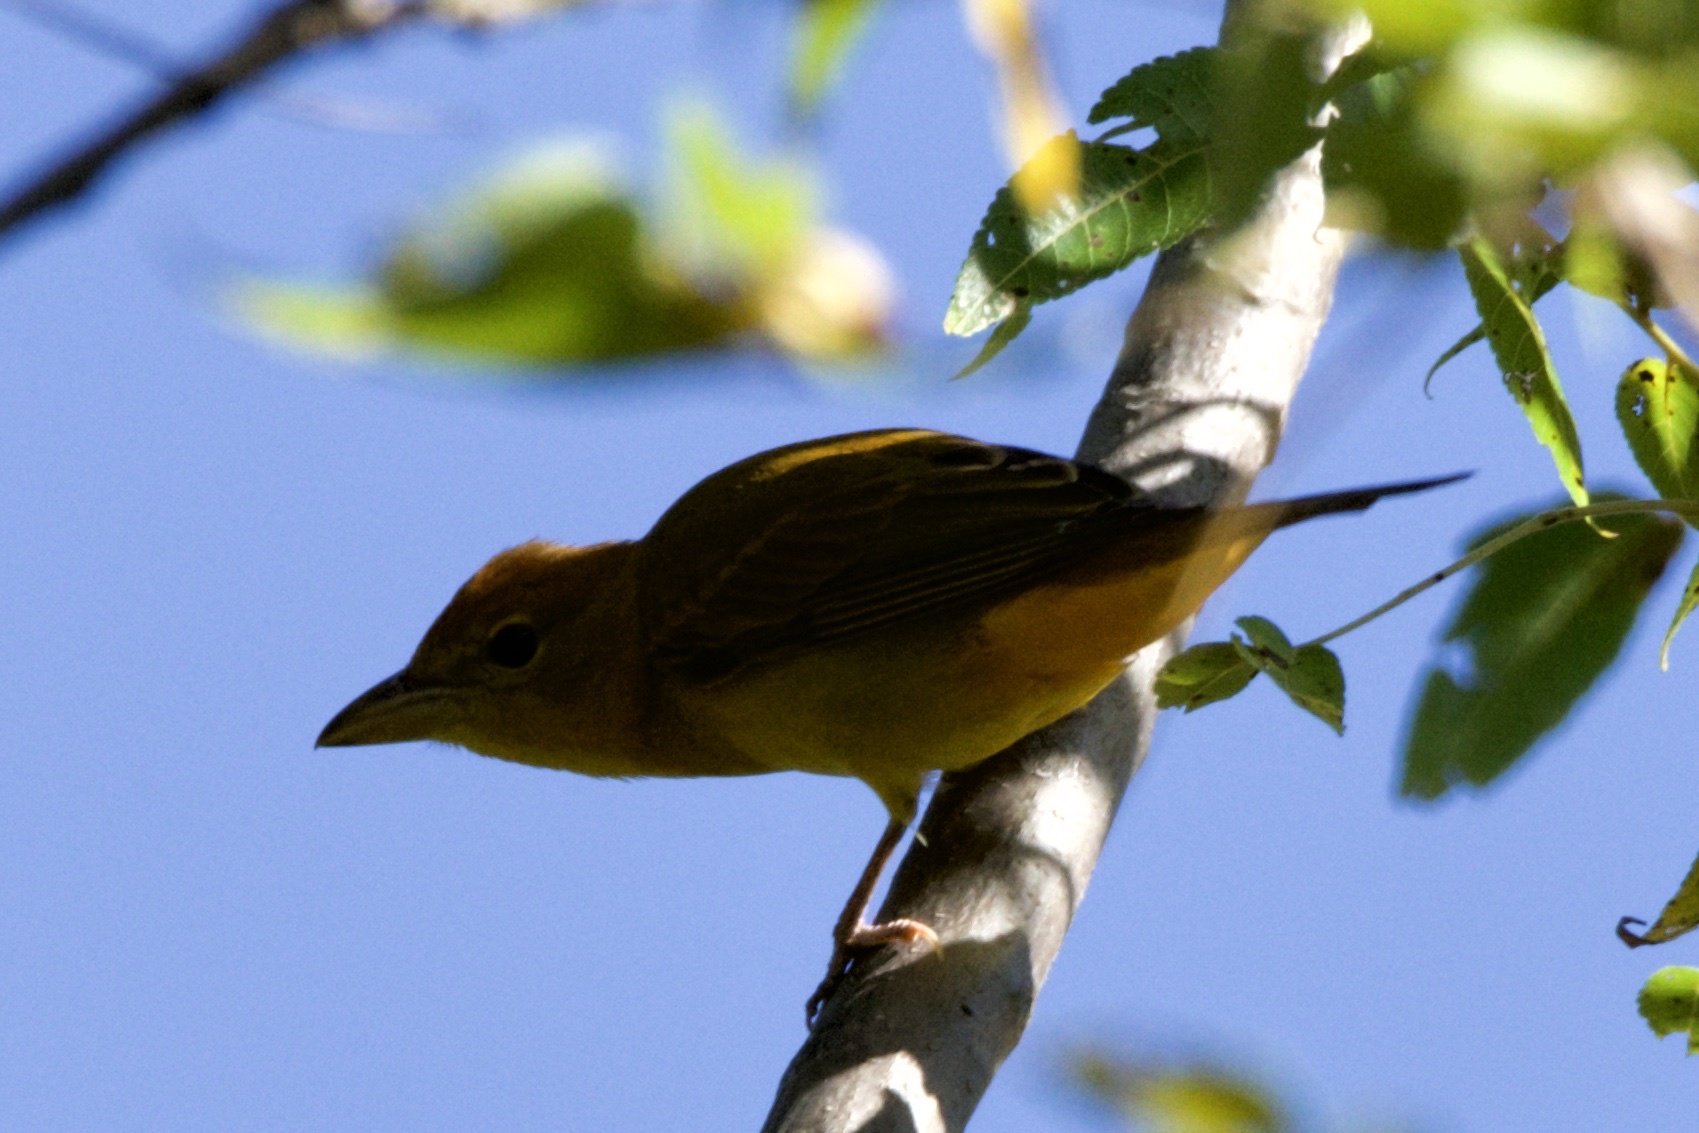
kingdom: Animalia
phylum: Chordata
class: Aves
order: Passeriformes
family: Cardinalidae
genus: Piranga
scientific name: Piranga rubra
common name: Summer tanager
